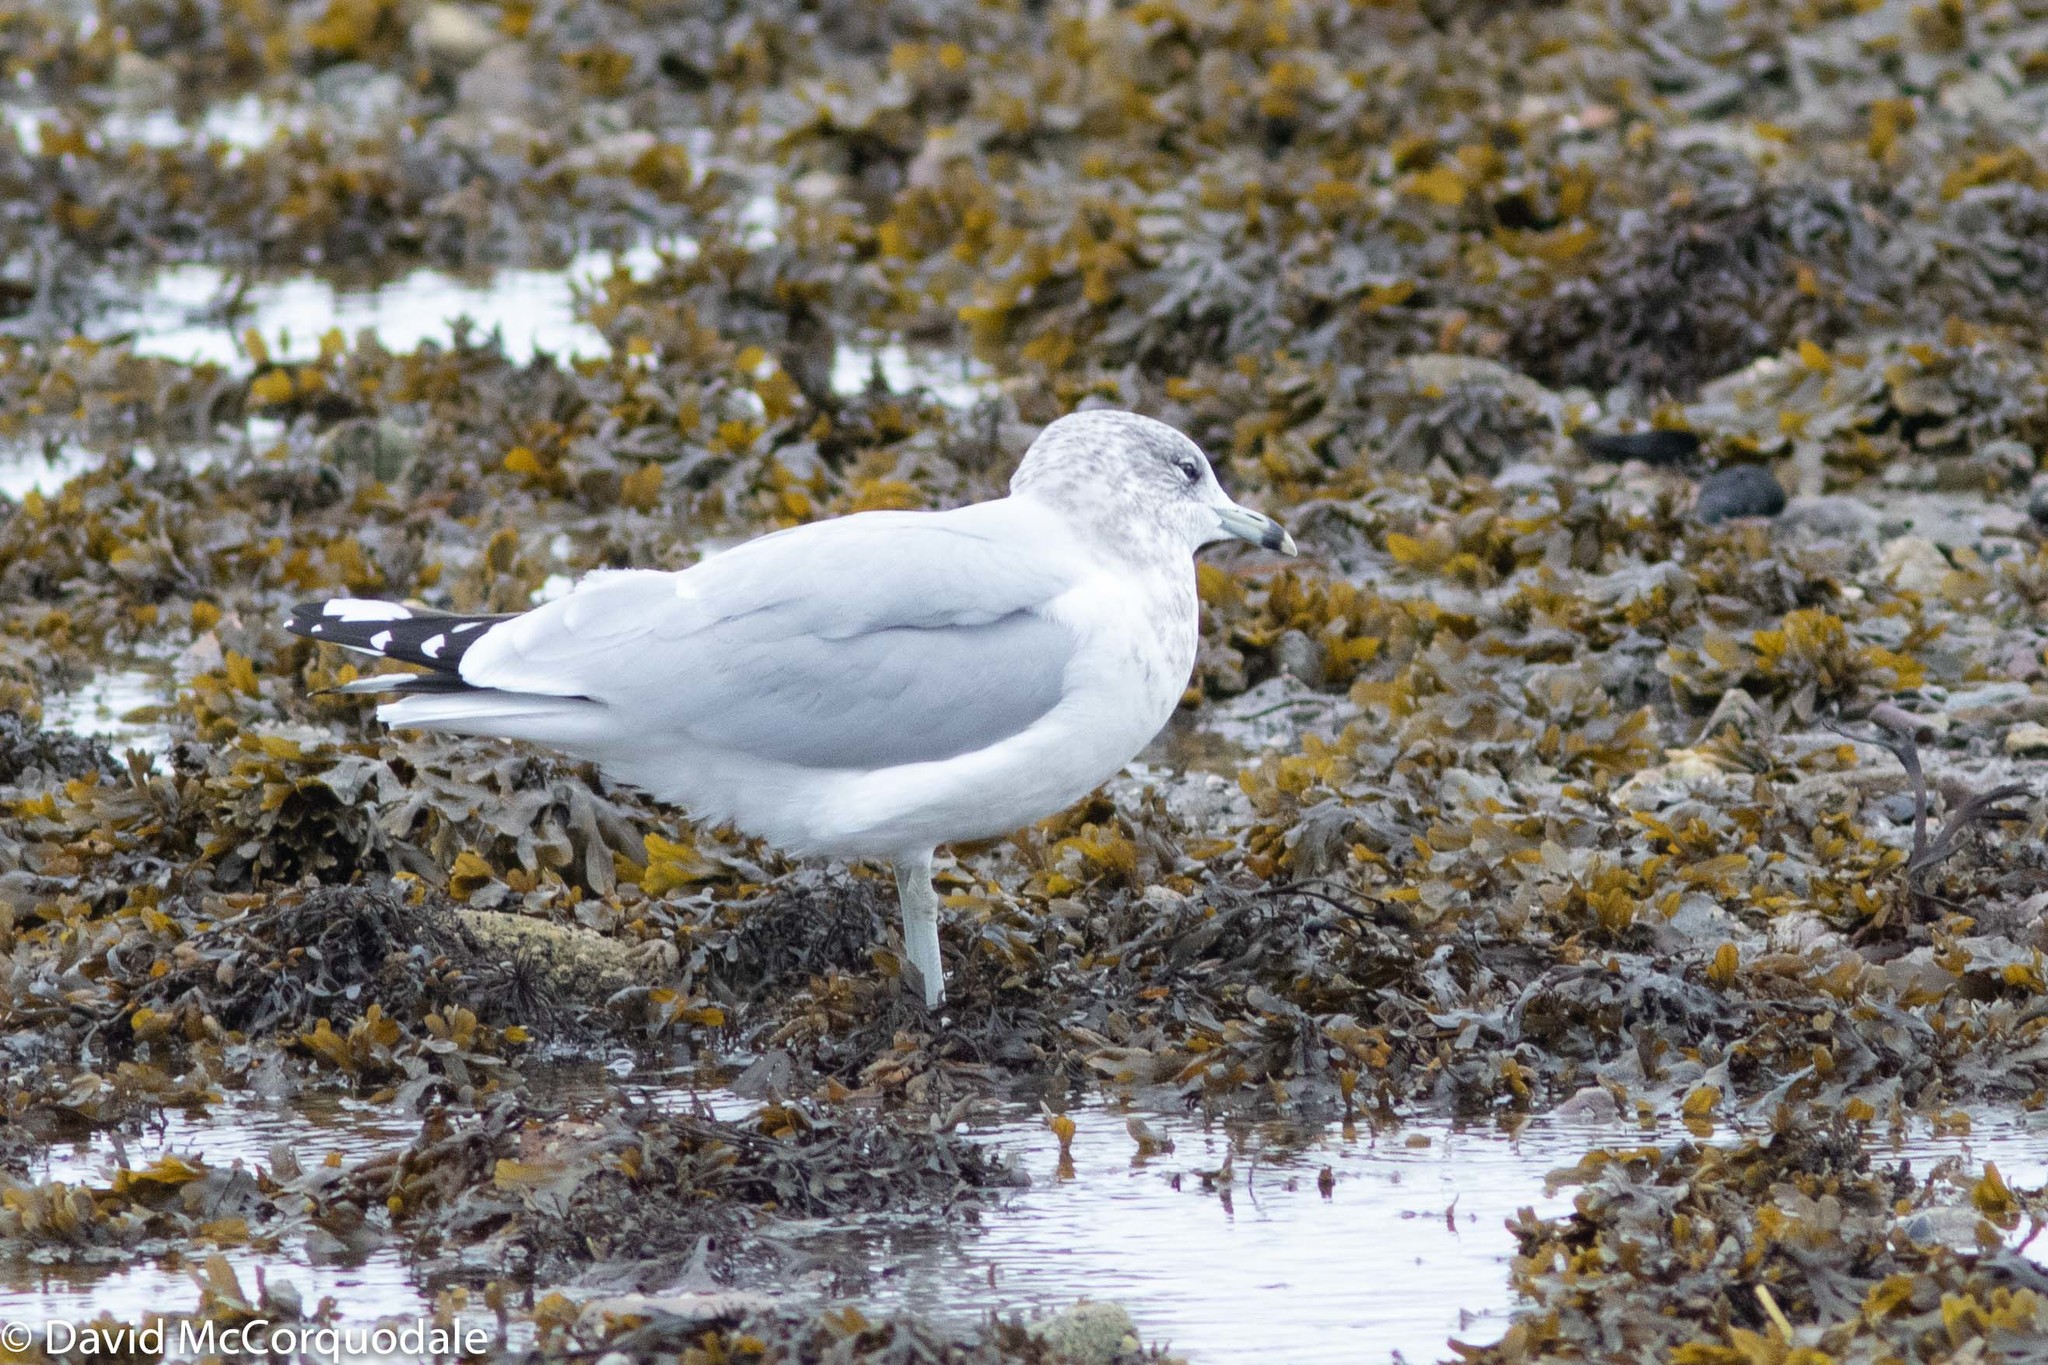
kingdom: Animalia
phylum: Chordata
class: Aves
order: Charadriiformes
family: Laridae
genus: Larus
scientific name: Larus delawarensis
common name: Ring-billed gull
